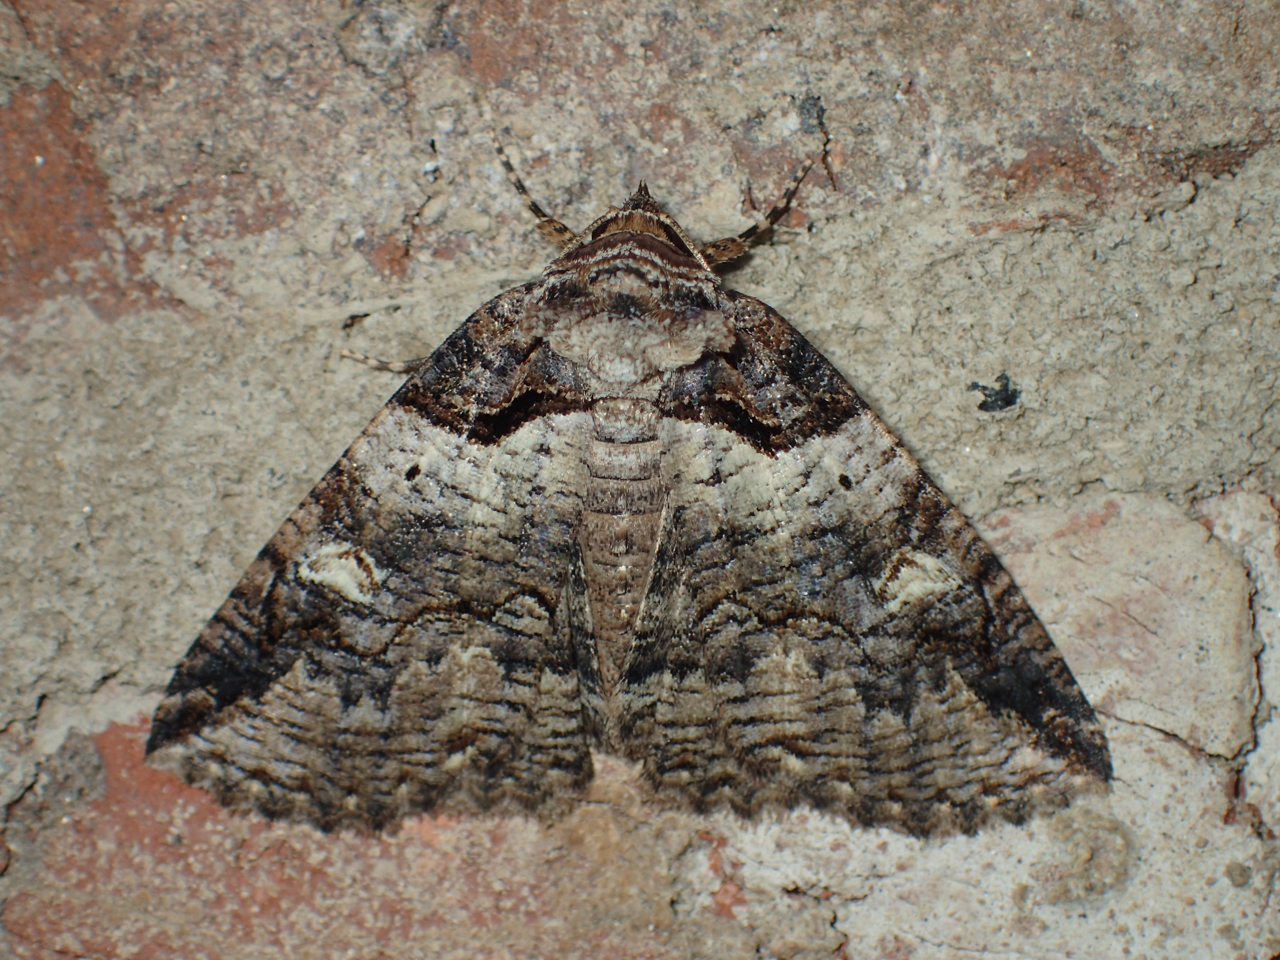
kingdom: Animalia
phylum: Arthropoda
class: Insecta
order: Lepidoptera
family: Erebidae
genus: Zale
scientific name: Zale intenta
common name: Intent zale moth
